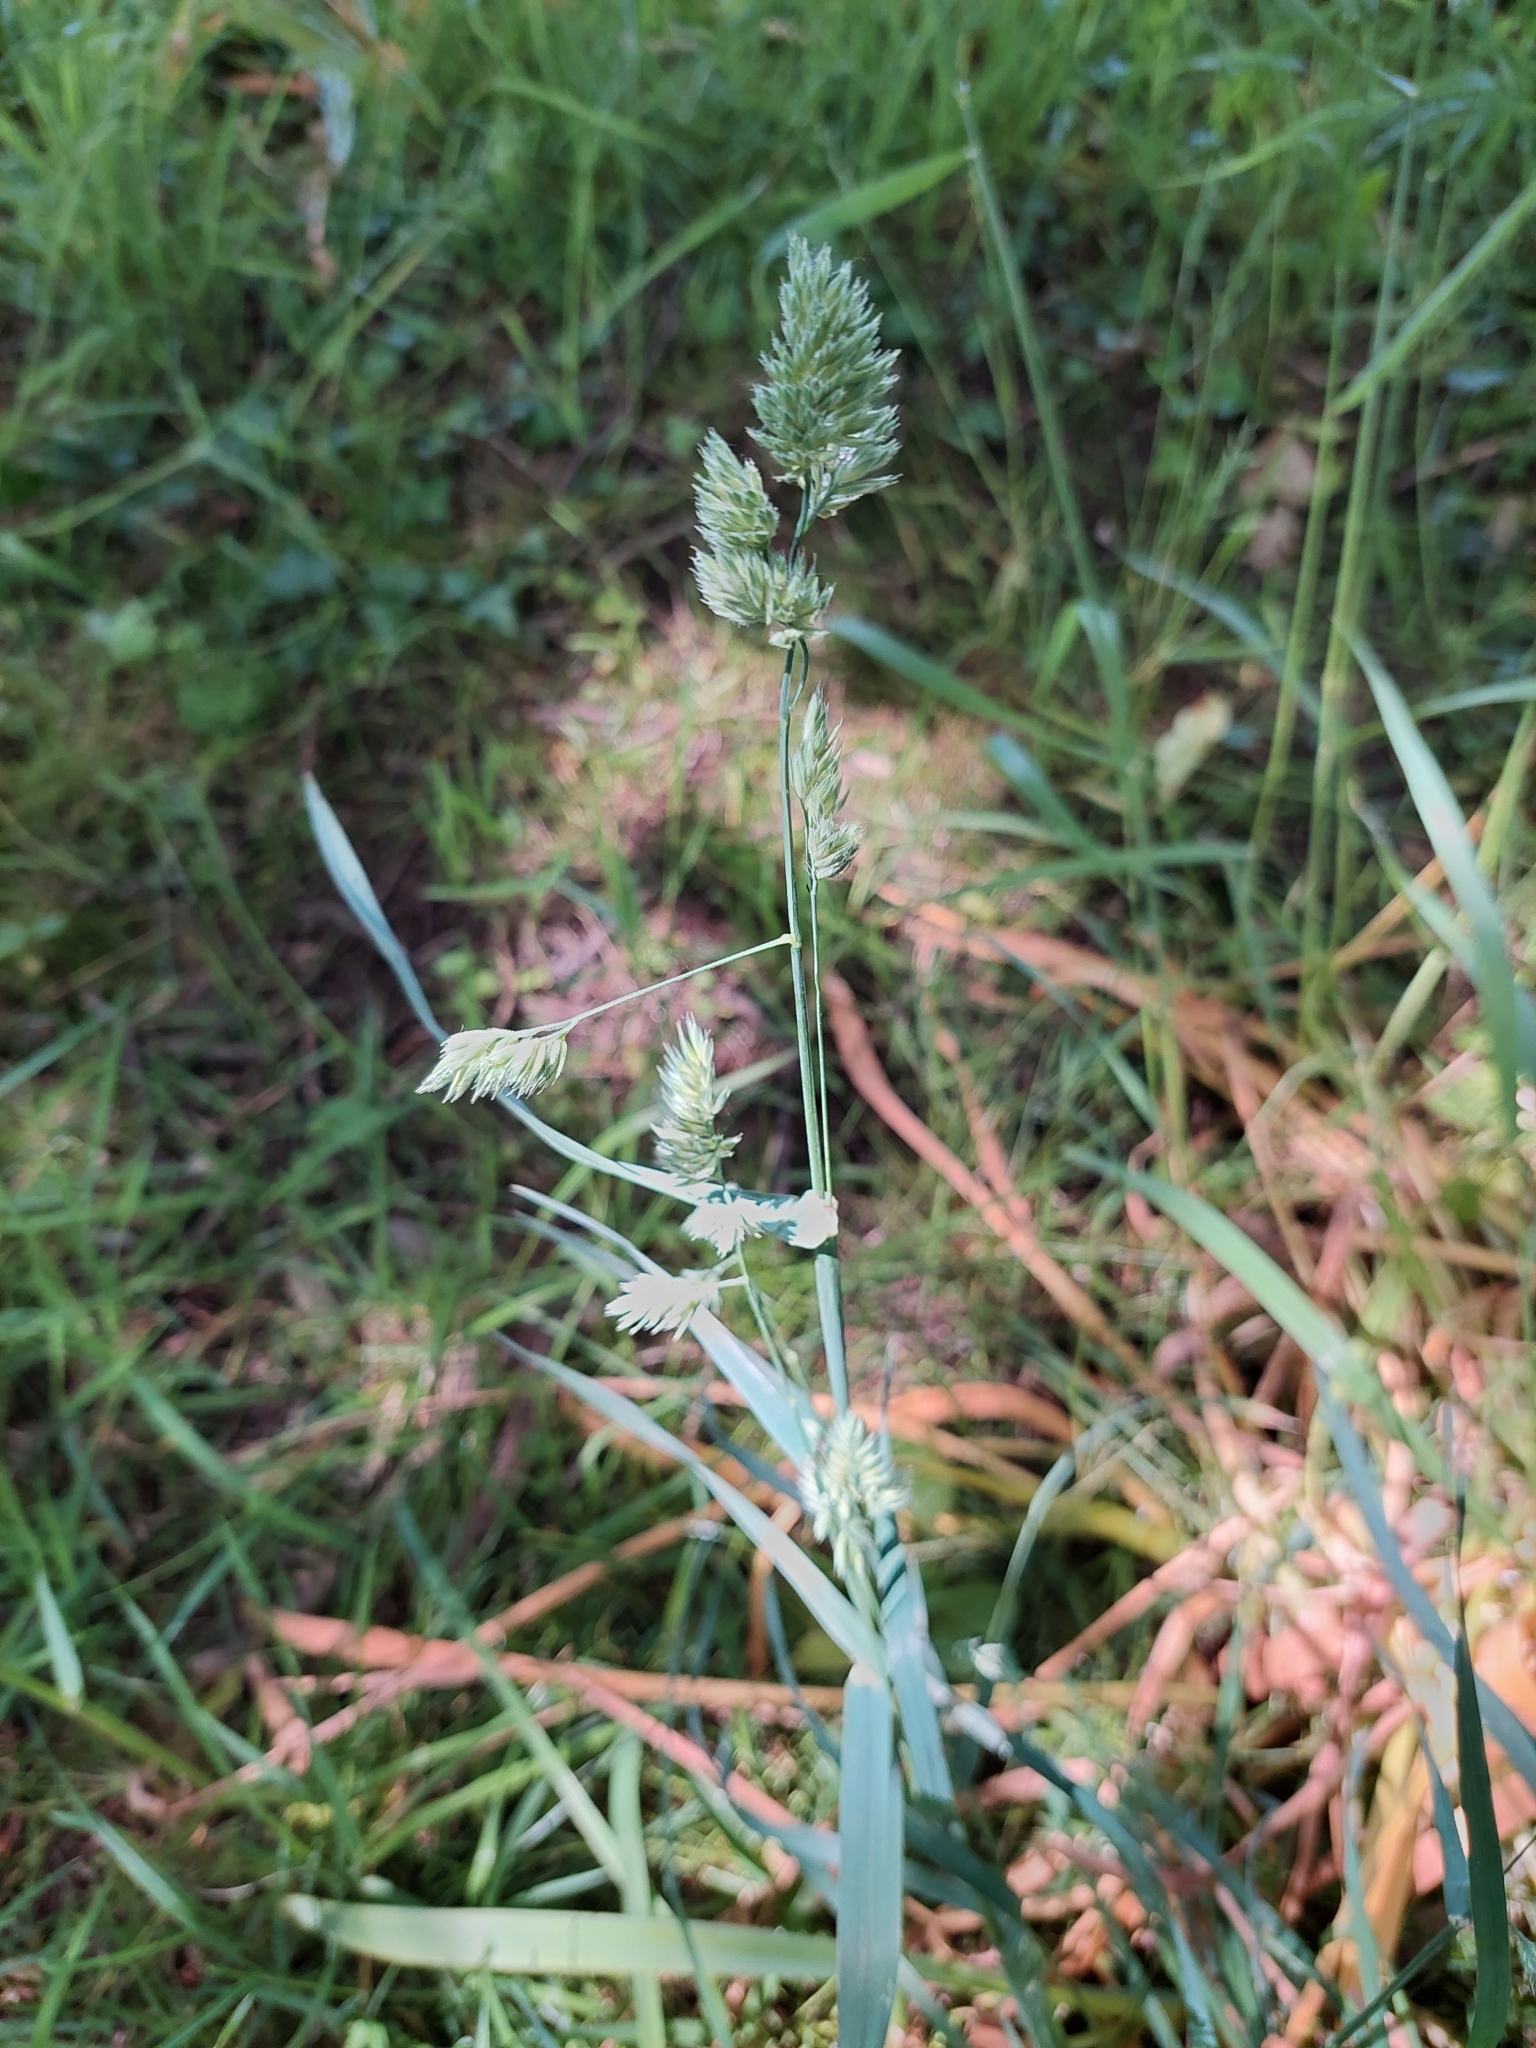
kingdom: Plantae
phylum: Tracheophyta
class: Liliopsida
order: Poales
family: Poaceae
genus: Dactylis
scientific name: Dactylis glomerata
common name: Orchardgrass
